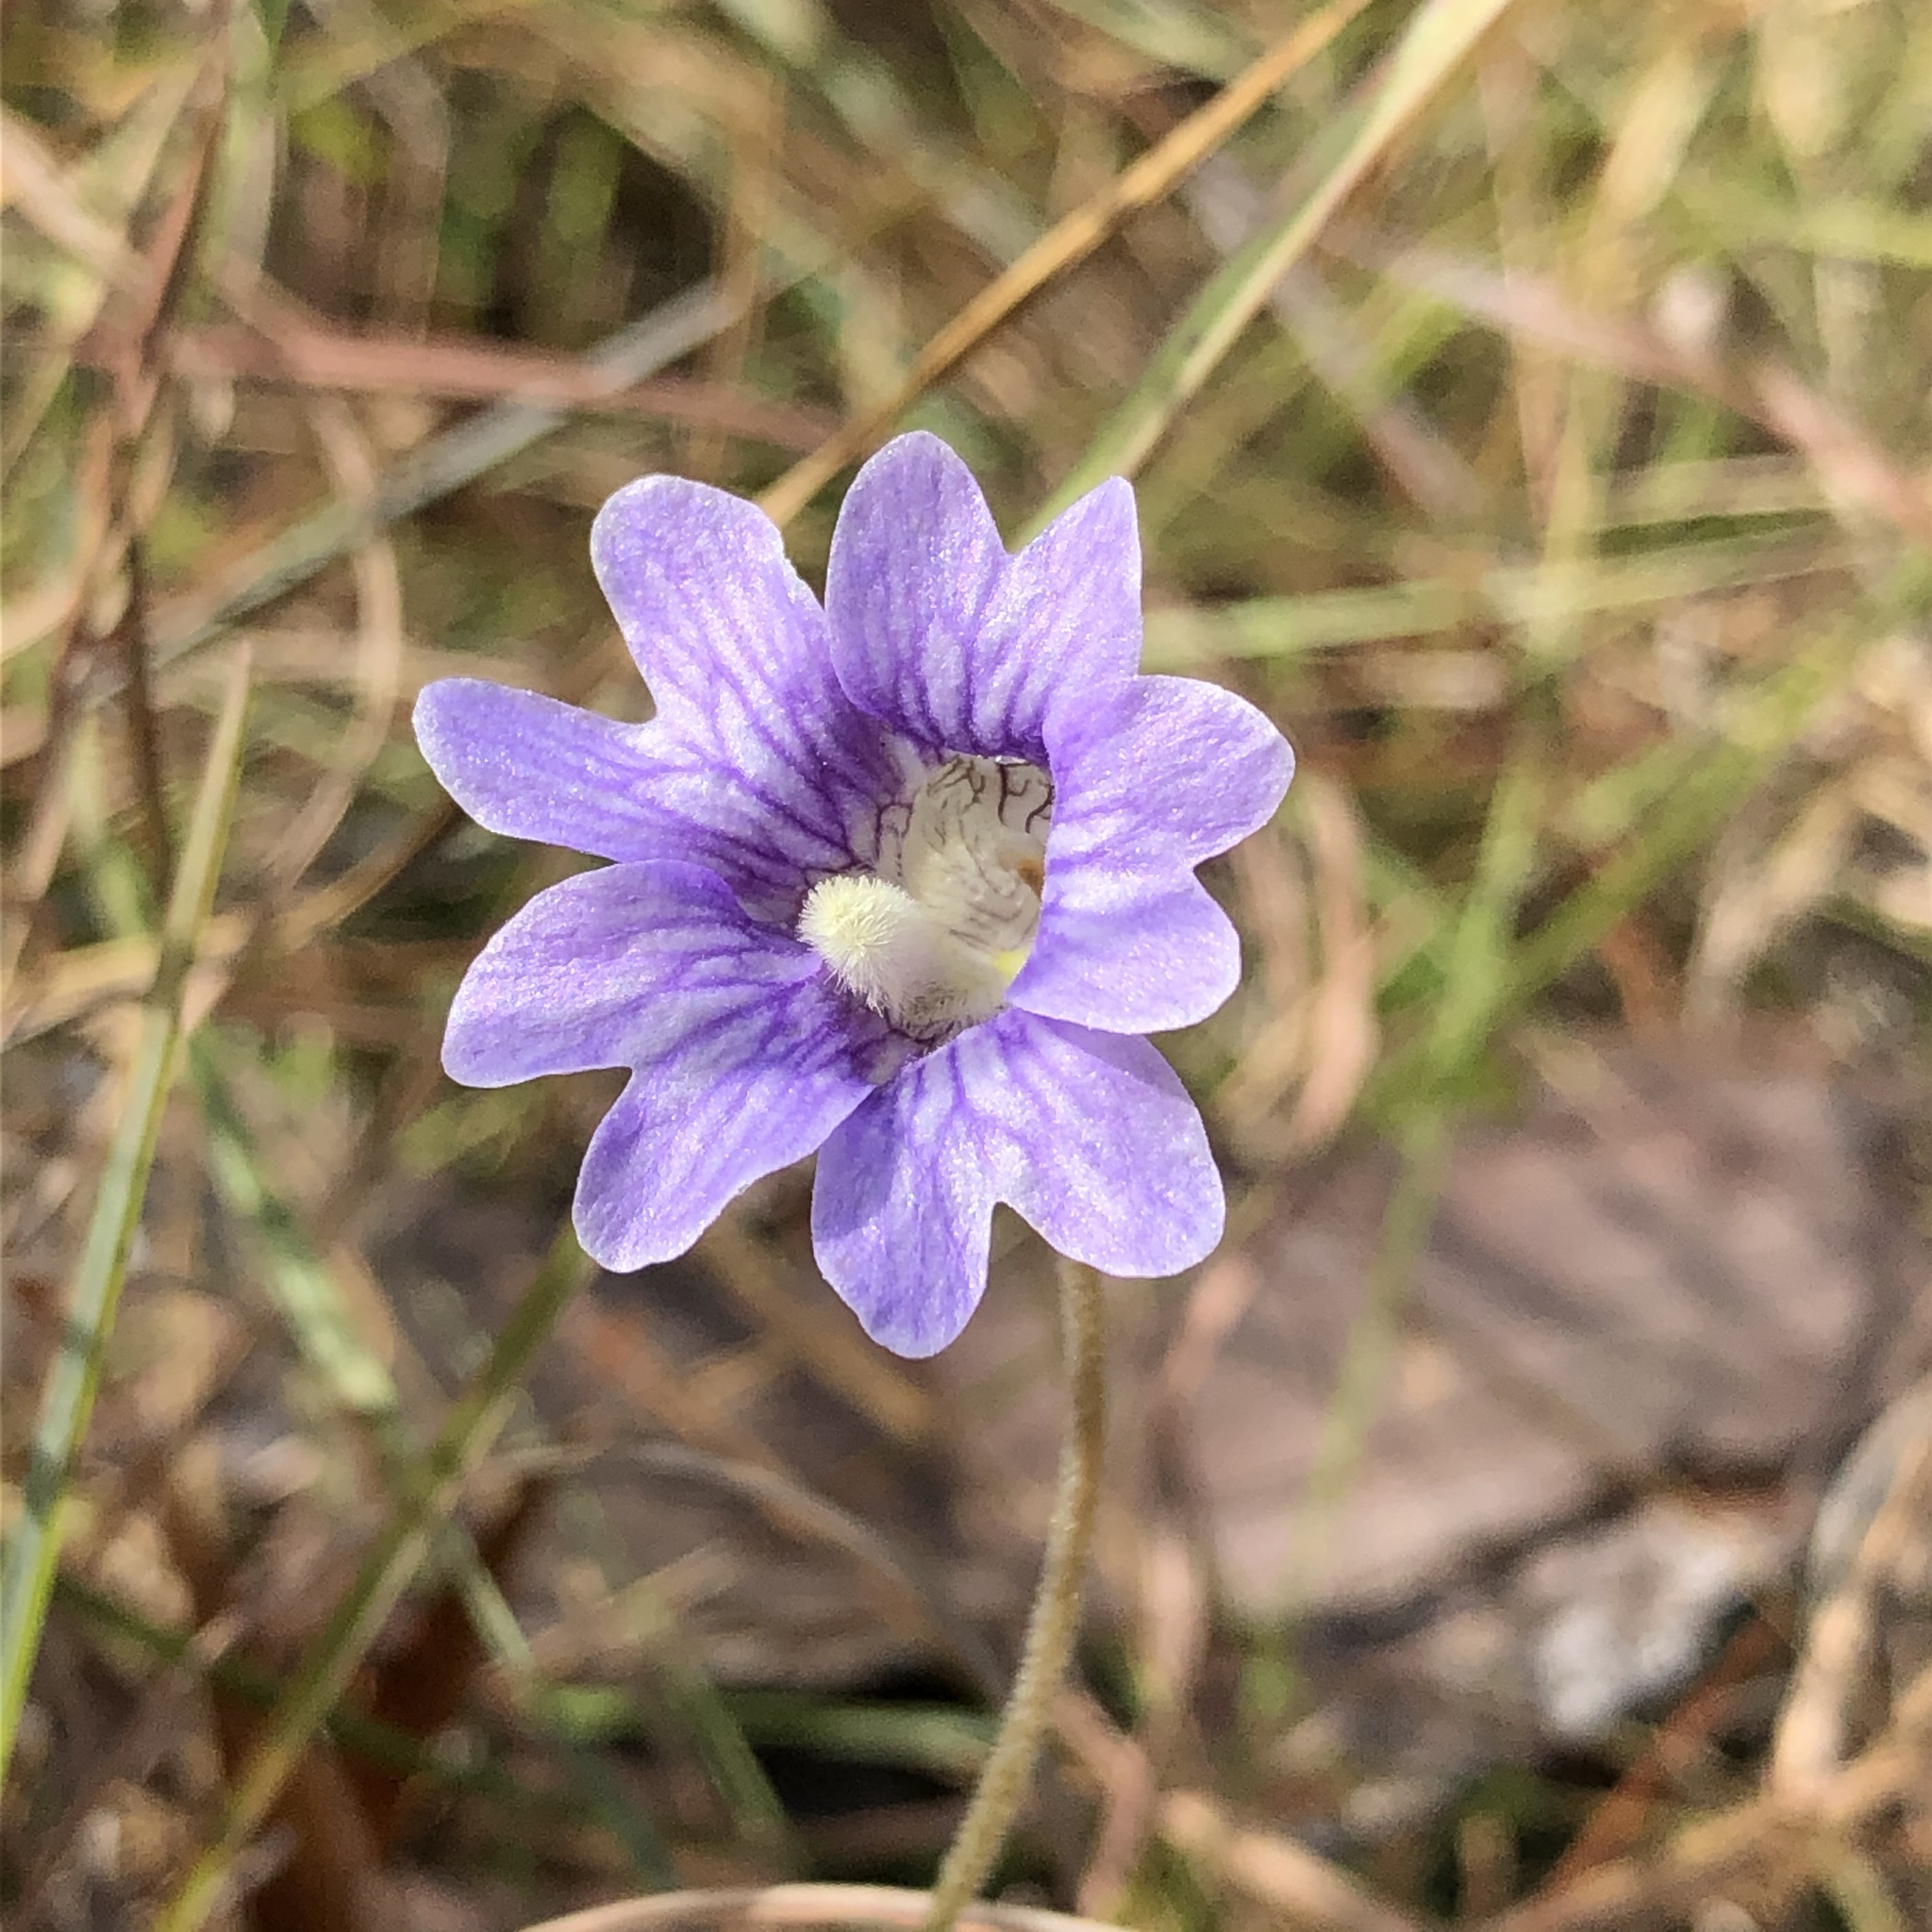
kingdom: Plantae
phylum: Tracheophyta
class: Magnoliopsida
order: Lamiales
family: Lentibulariaceae
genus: Pinguicula
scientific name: Pinguicula caerulea
